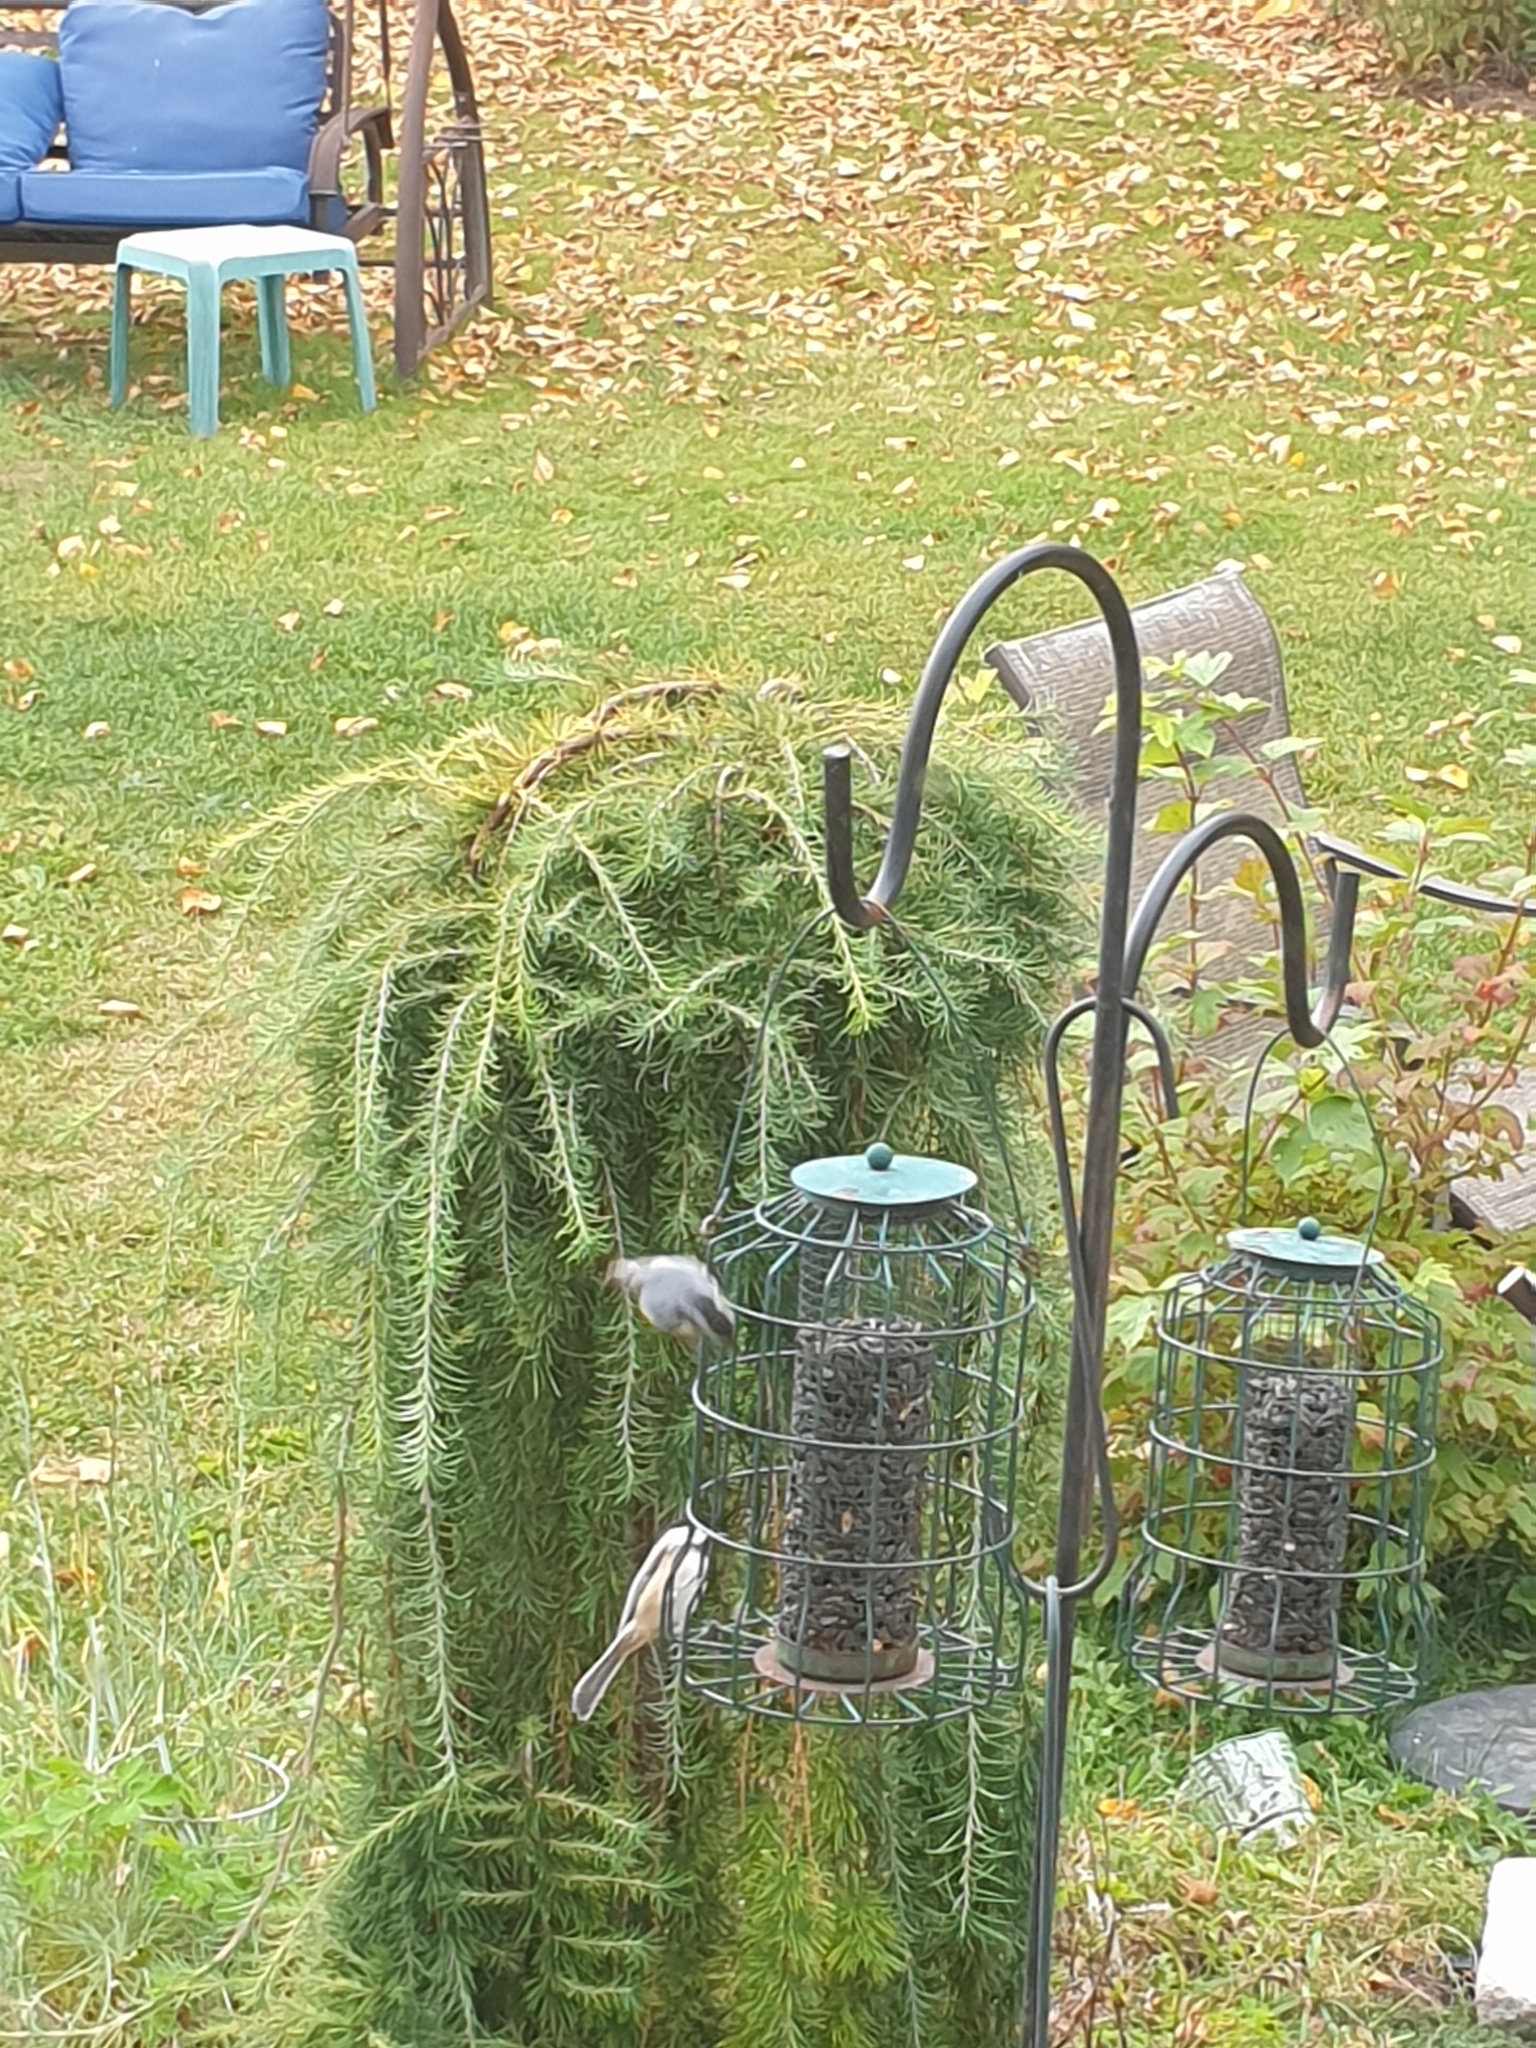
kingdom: Animalia
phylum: Chordata
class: Aves
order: Passeriformes
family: Sittidae
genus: Sitta
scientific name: Sitta canadensis
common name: Red-breasted nuthatch
